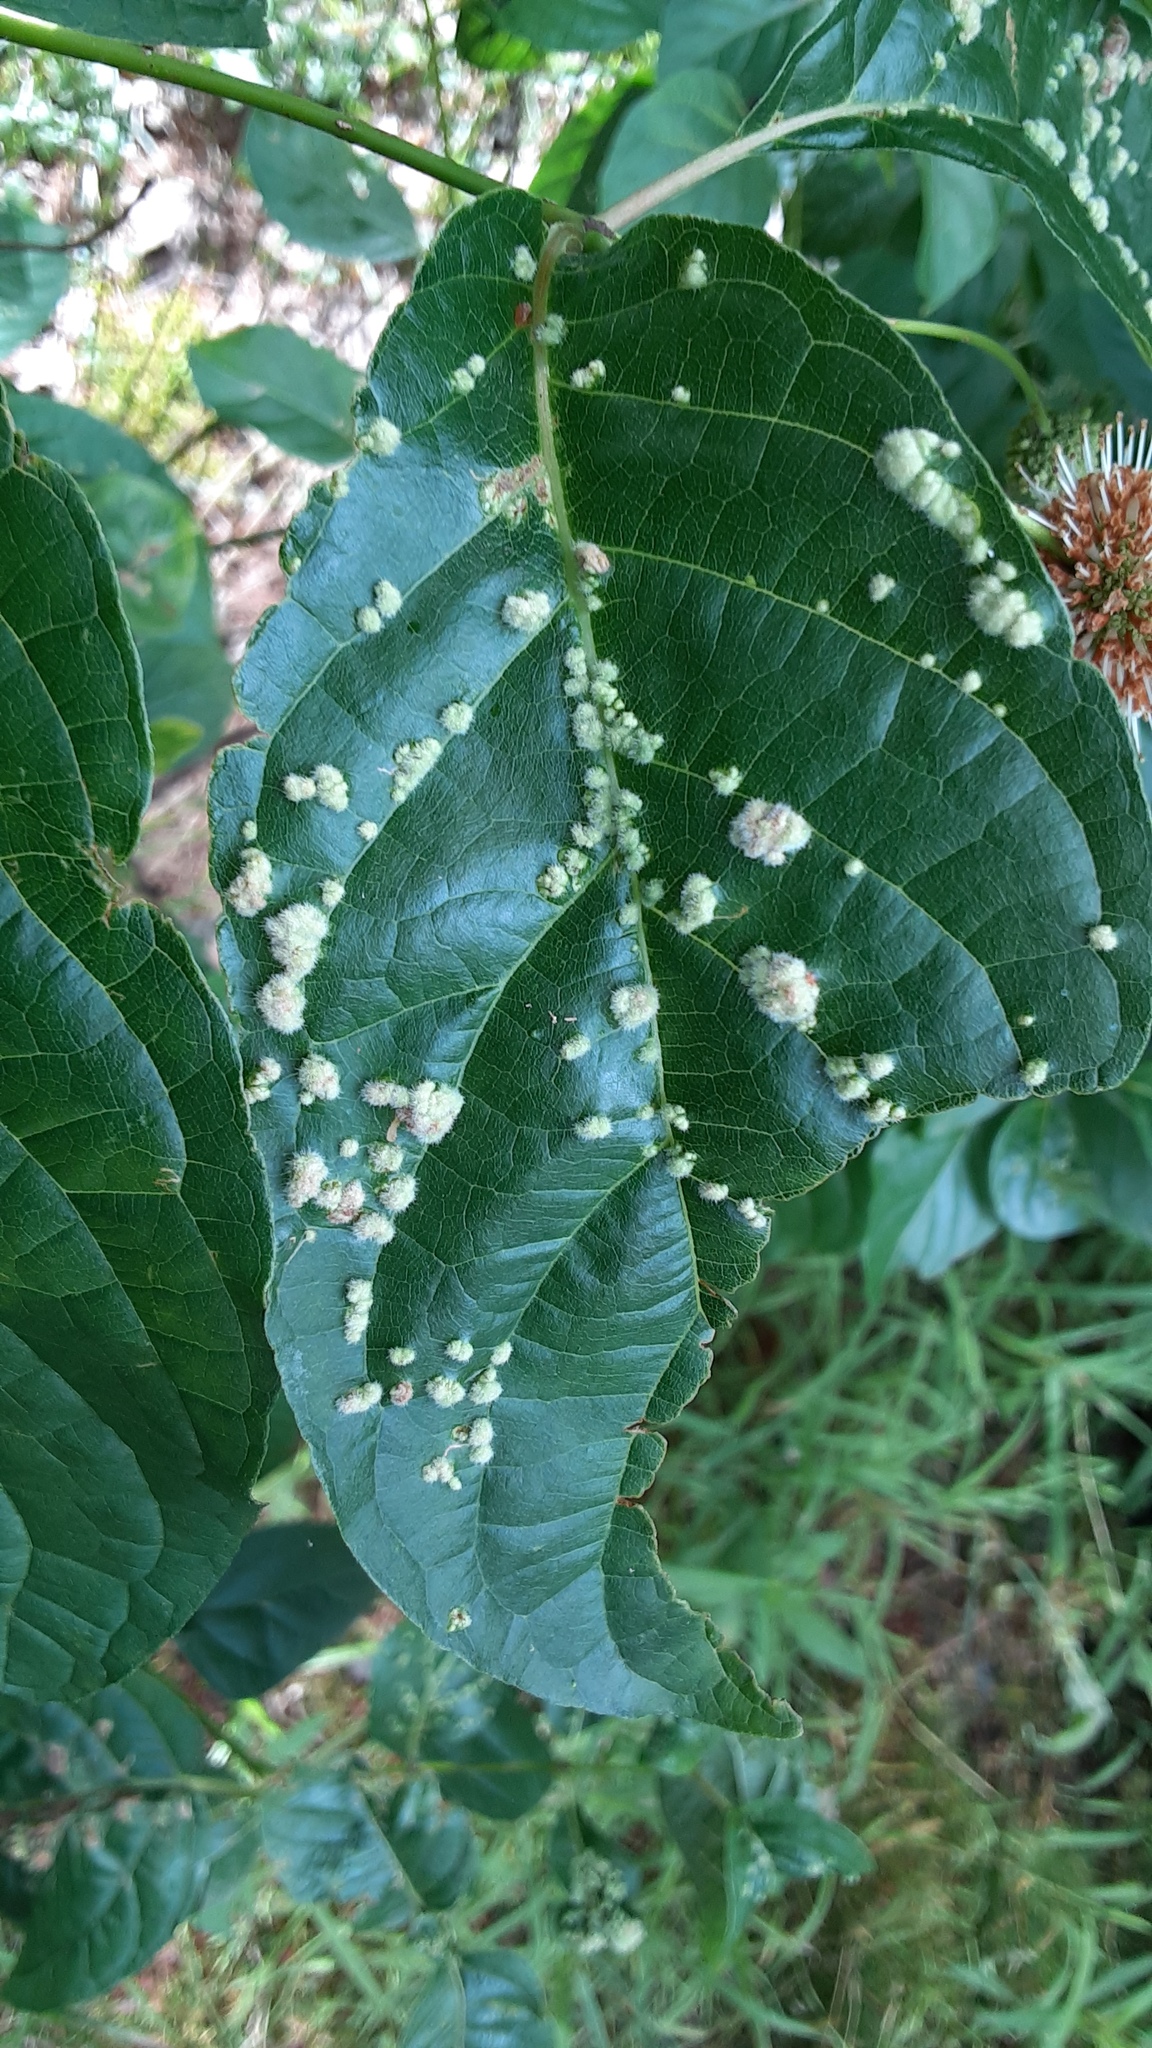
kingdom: Animalia
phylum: Arthropoda
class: Arachnida
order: Trombidiformes
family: Eriophyidae
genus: Aceria
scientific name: Aceria
